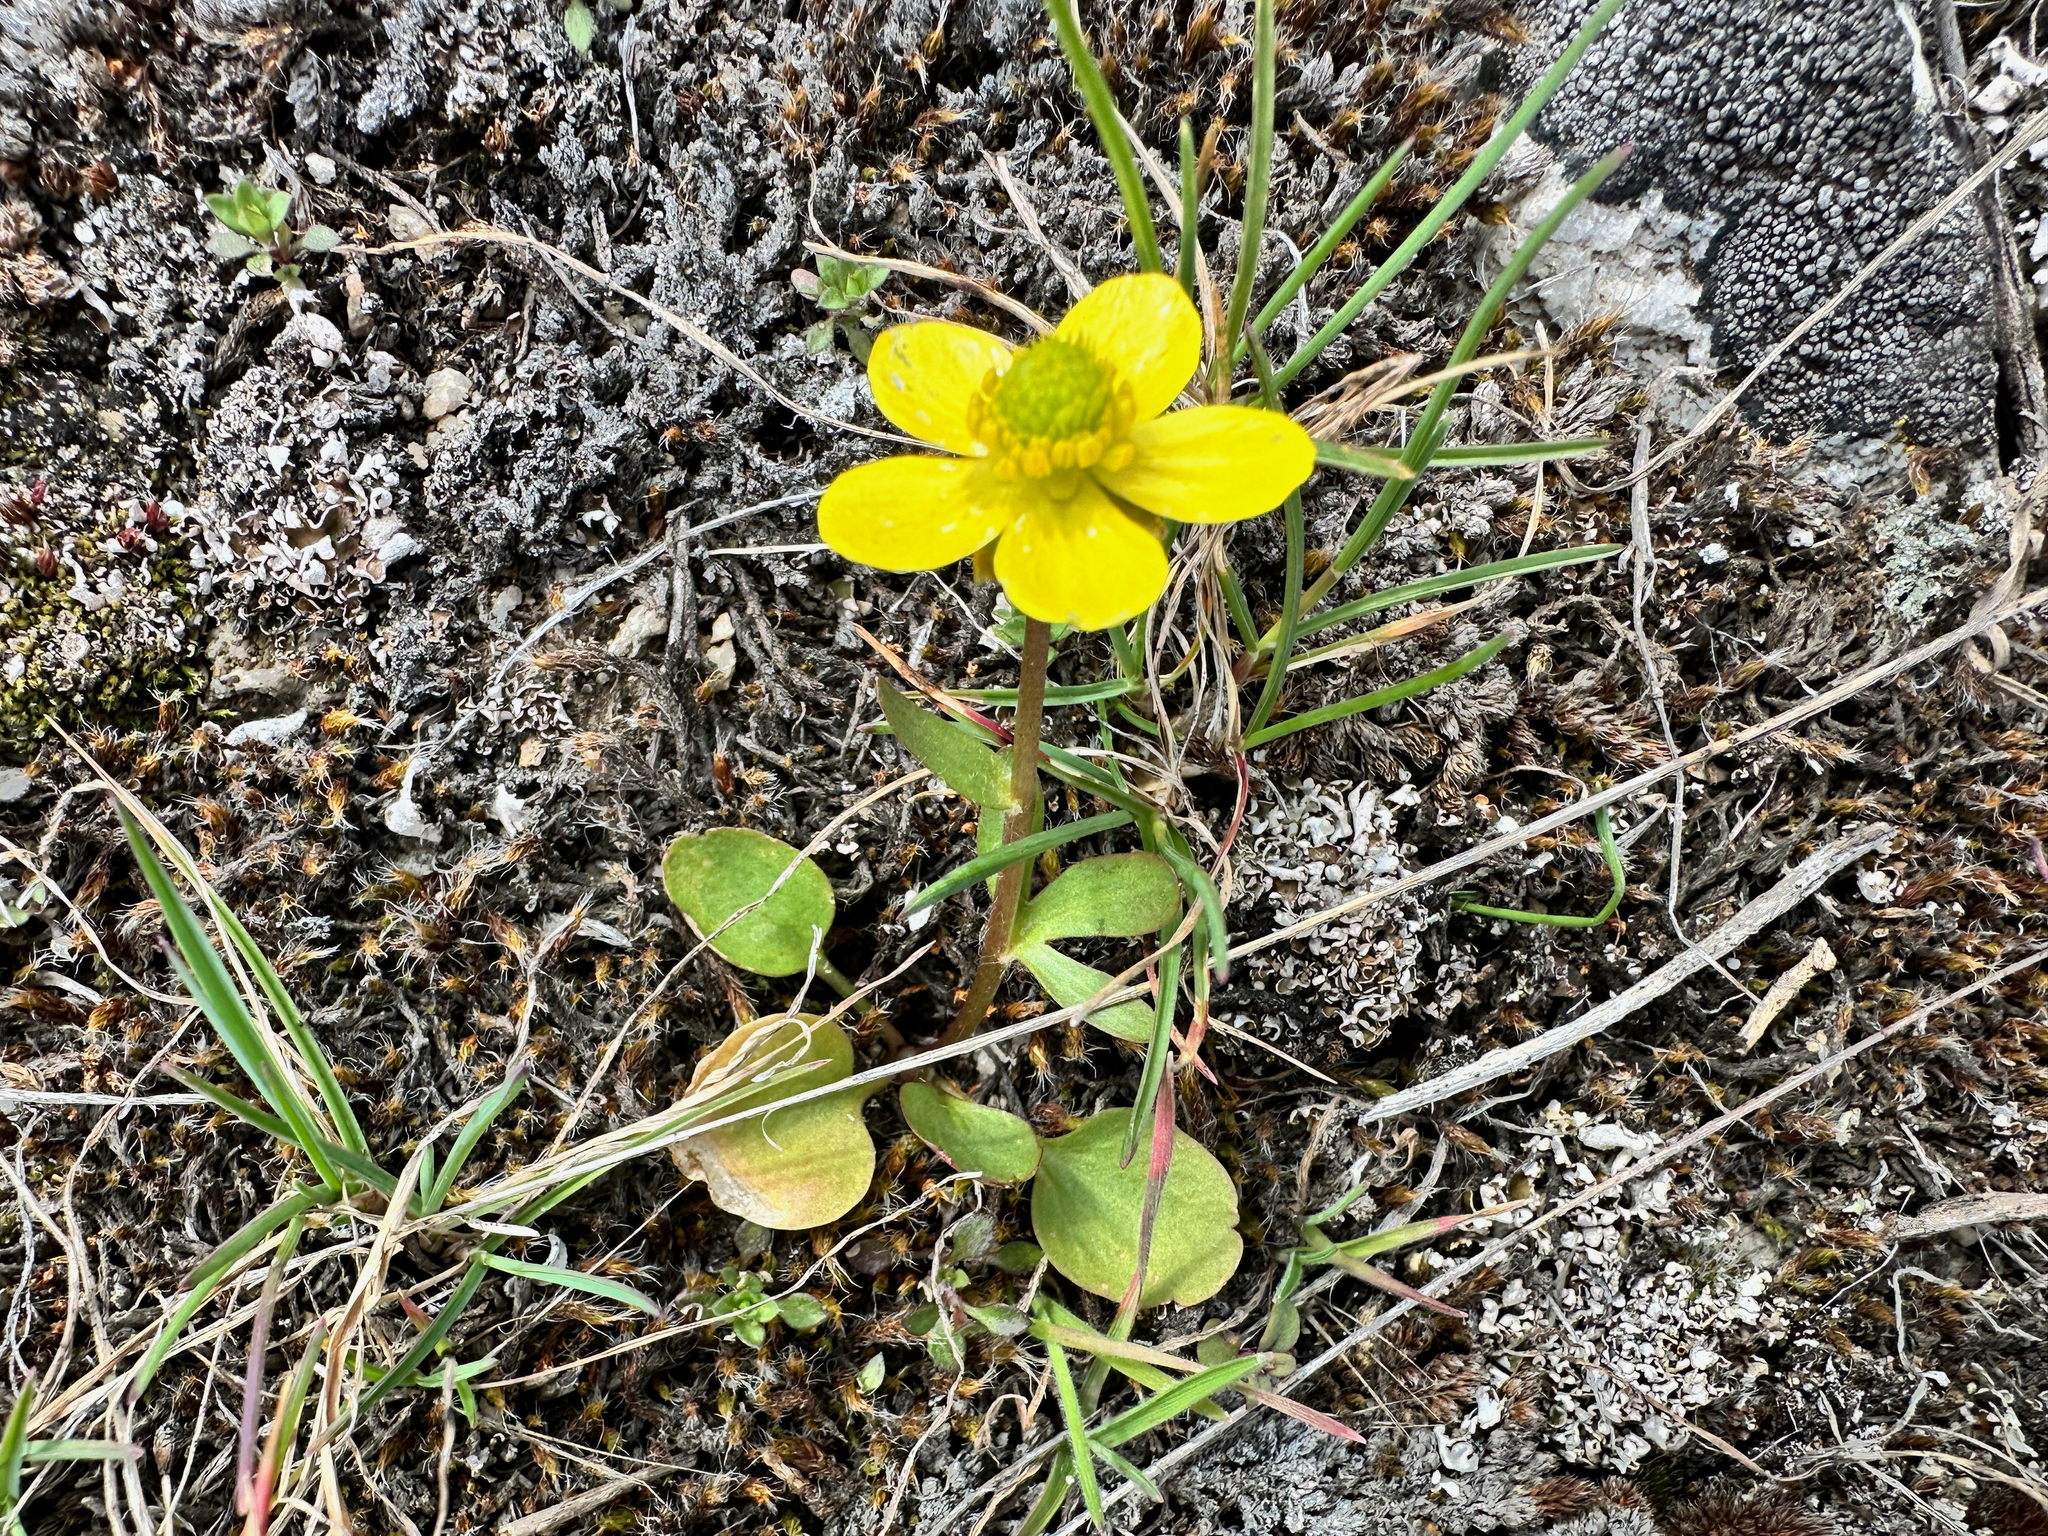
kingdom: Plantae
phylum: Tracheophyta
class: Magnoliopsida
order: Ranunculales
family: Ranunculaceae
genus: Ranunculus
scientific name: Ranunculus glaberrimus
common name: Sagebrush buttercup
